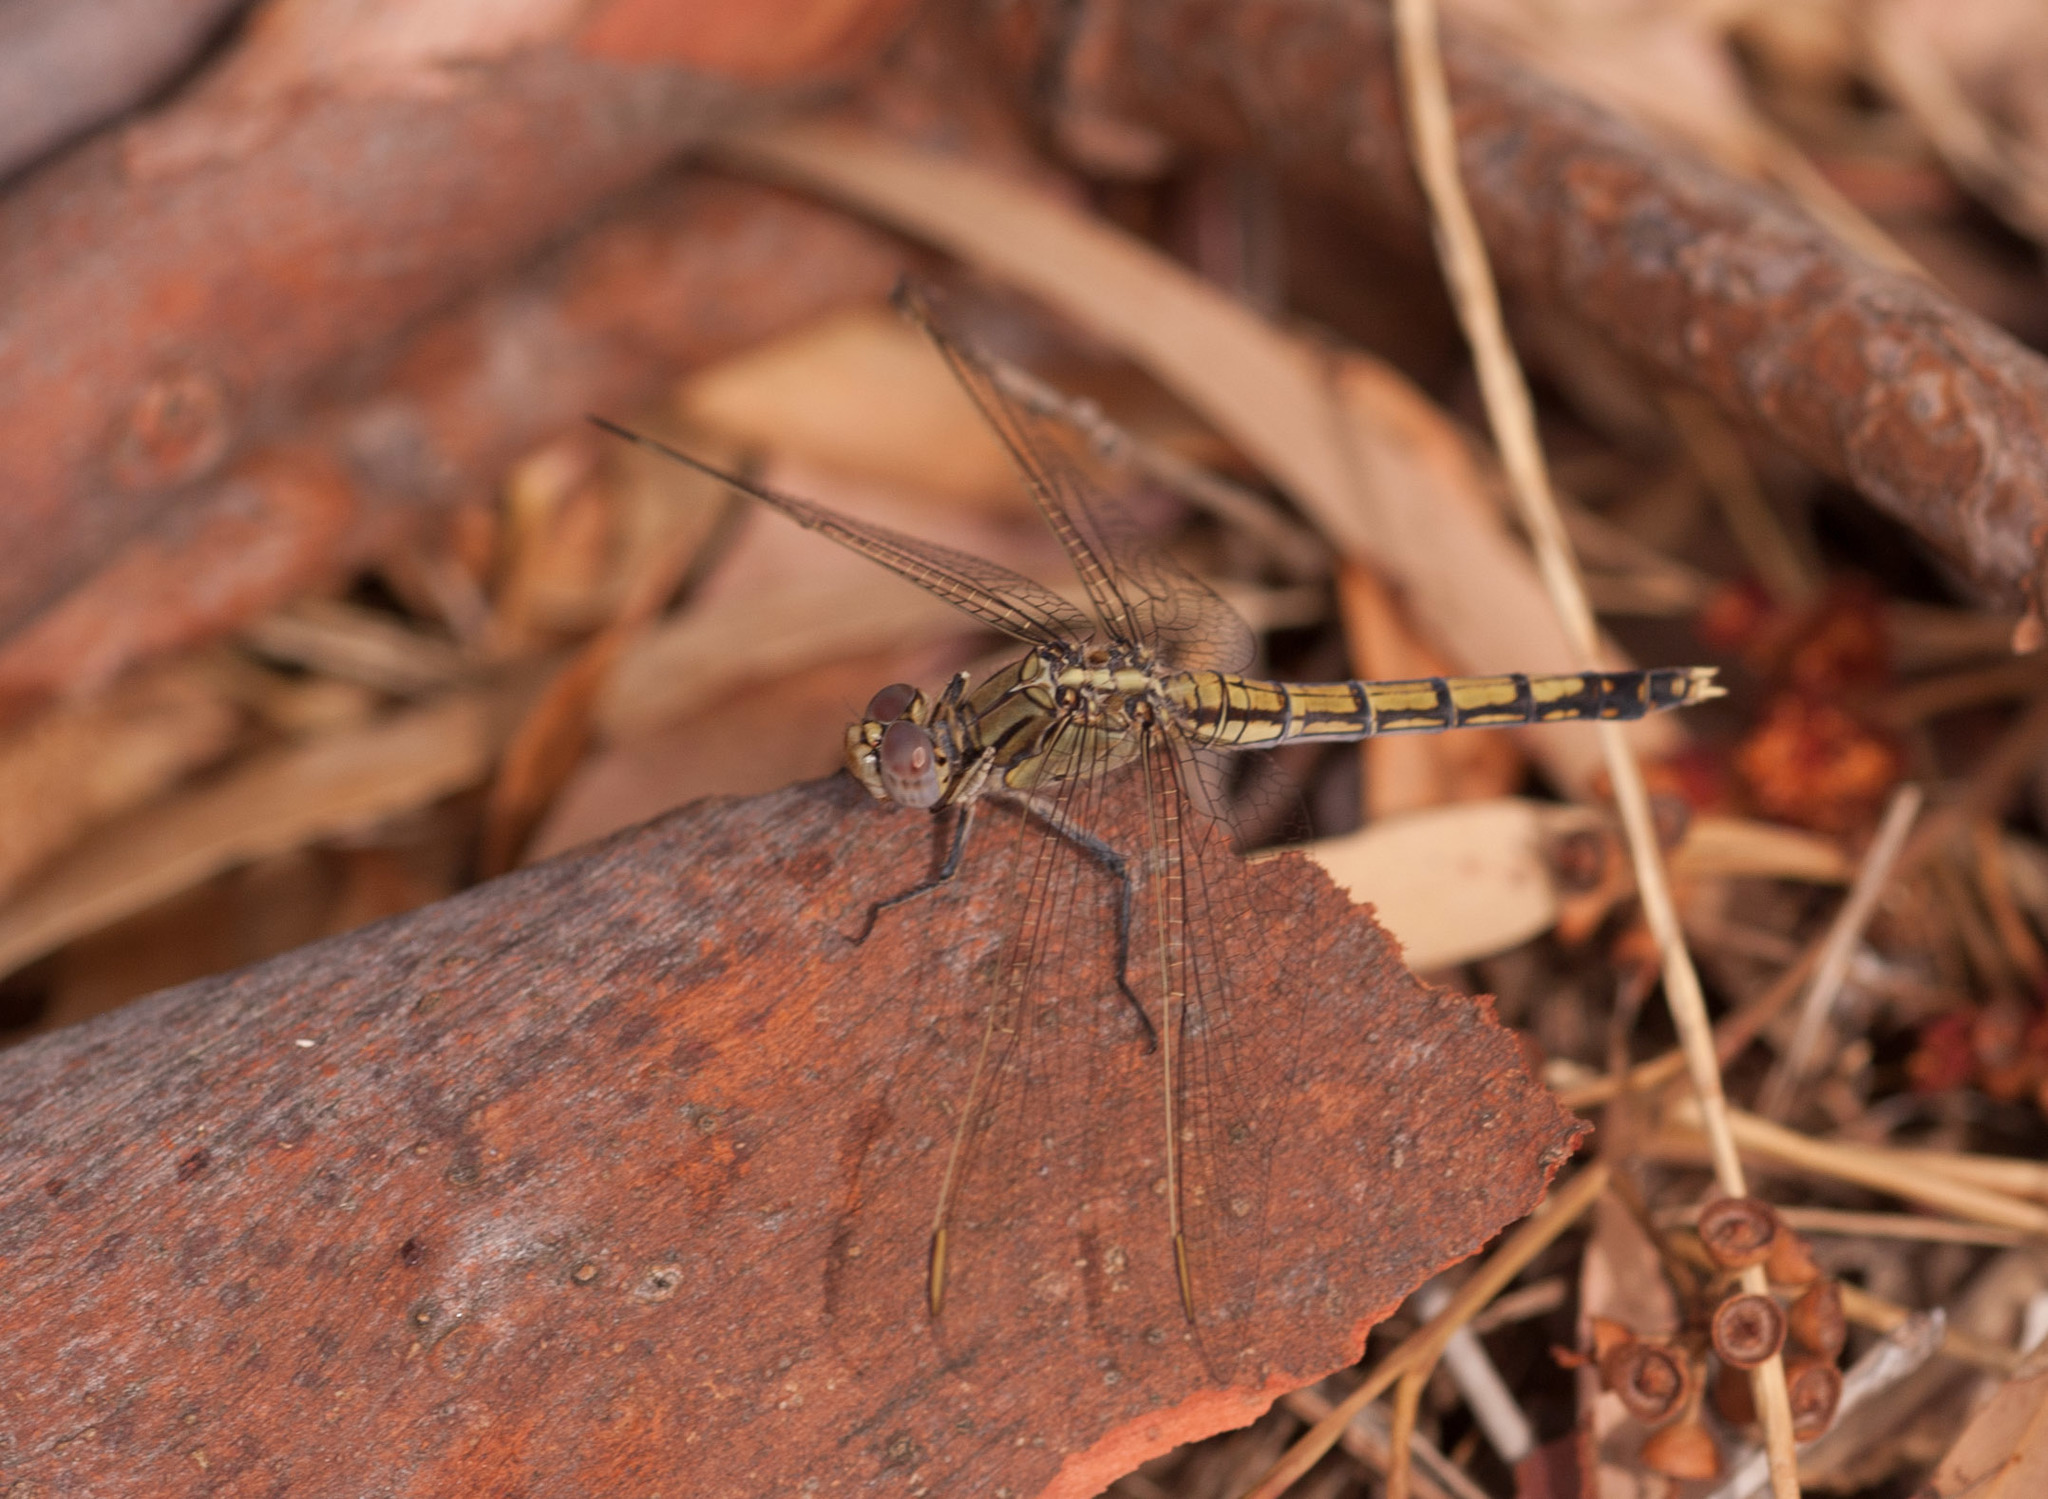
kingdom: Animalia
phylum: Arthropoda
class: Insecta
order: Odonata
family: Libellulidae
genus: Orthetrum
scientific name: Orthetrum caledonicum
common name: Blue skimmer
